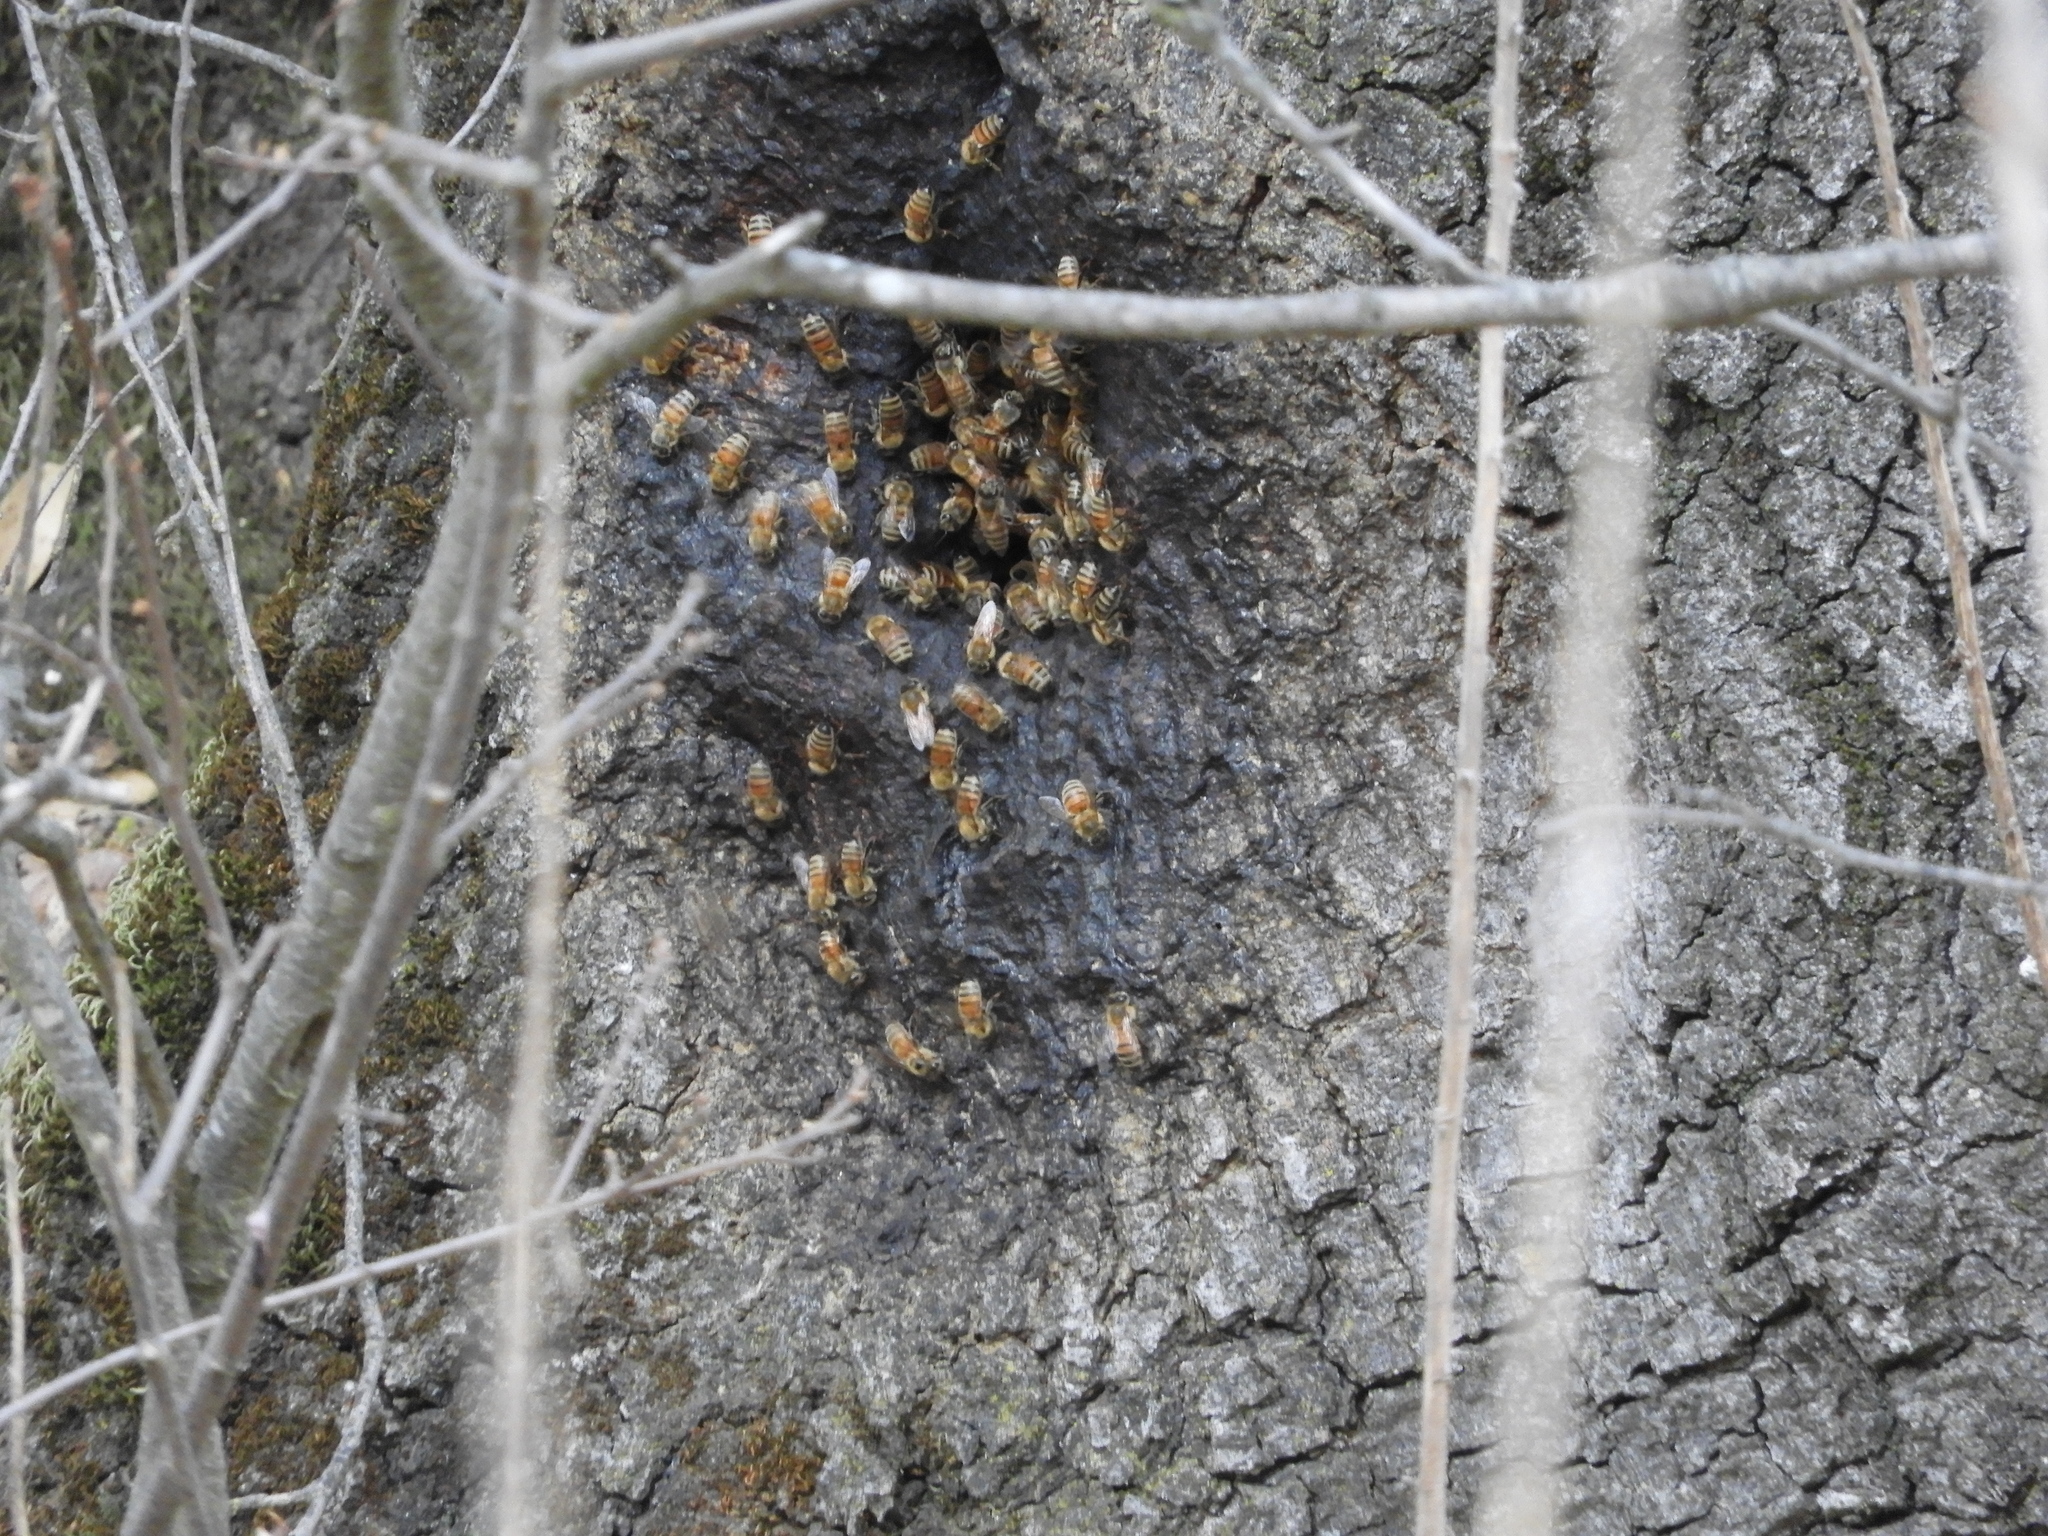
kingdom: Animalia
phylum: Arthropoda
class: Insecta
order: Hymenoptera
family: Apidae
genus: Apis
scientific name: Apis mellifera
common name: Honey bee
